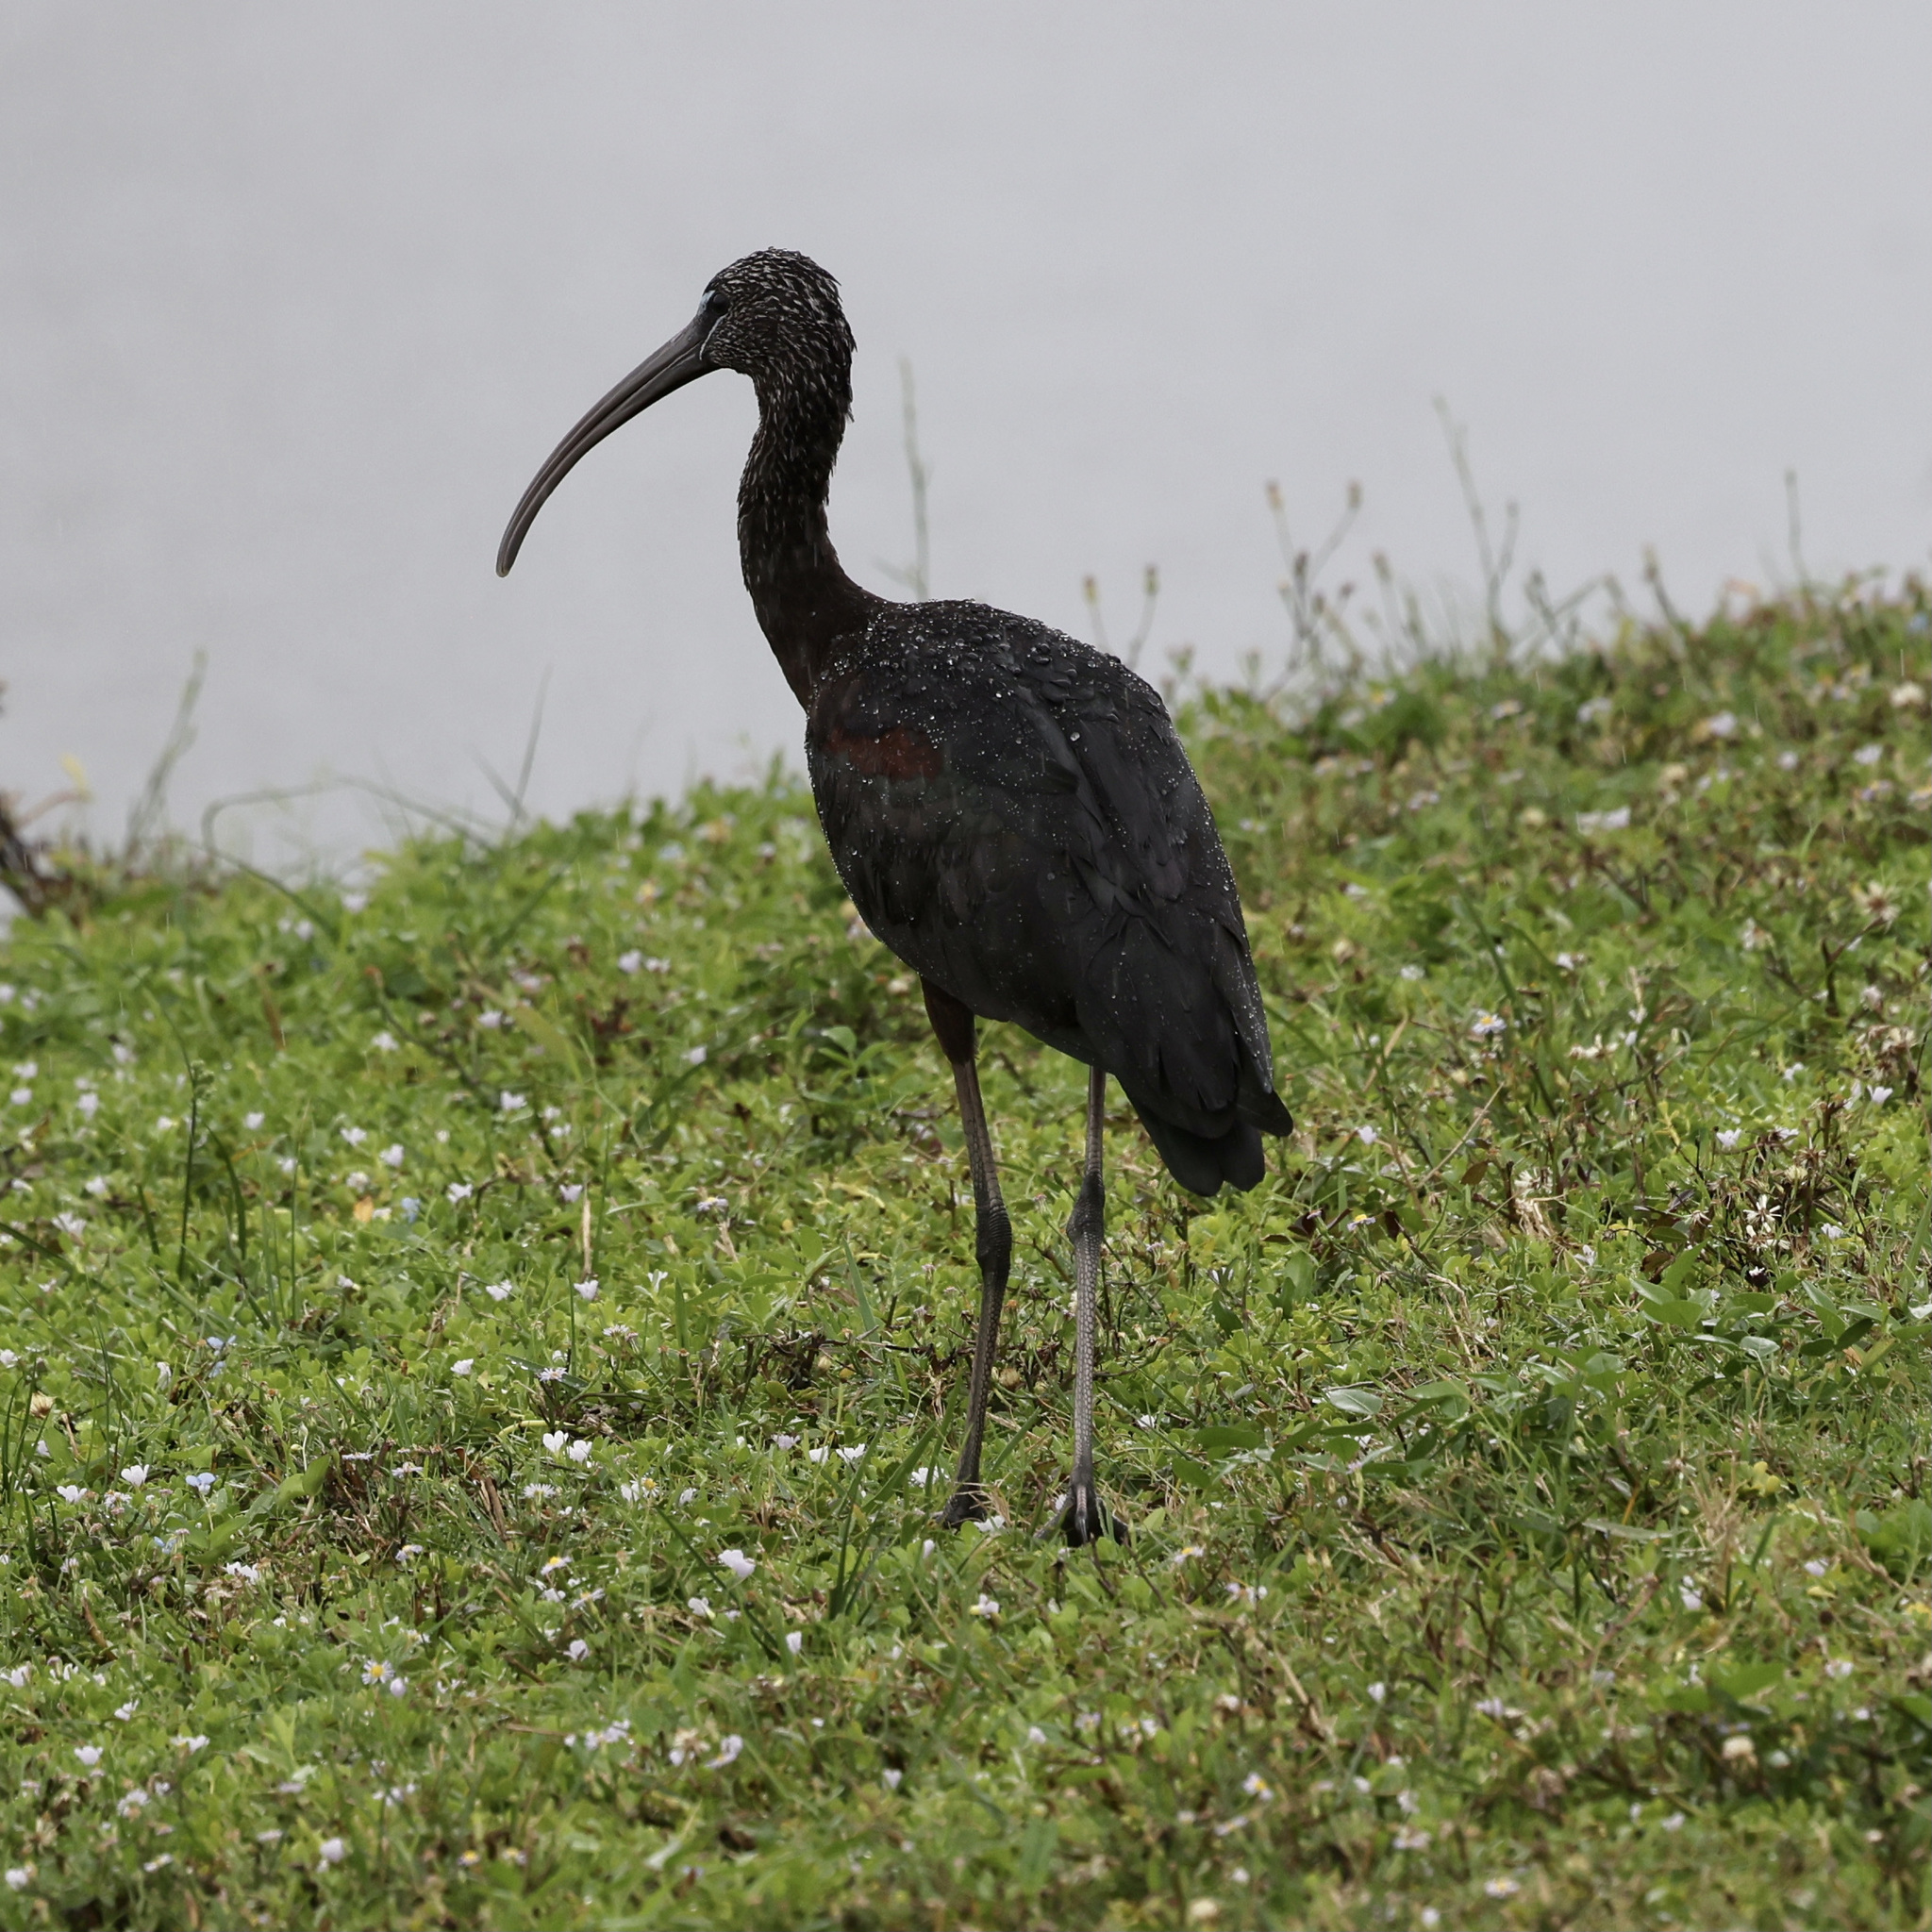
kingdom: Animalia
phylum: Chordata
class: Aves
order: Pelecaniformes
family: Threskiornithidae
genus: Plegadis
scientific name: Plegadis falcinellus
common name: Glossy ibis
